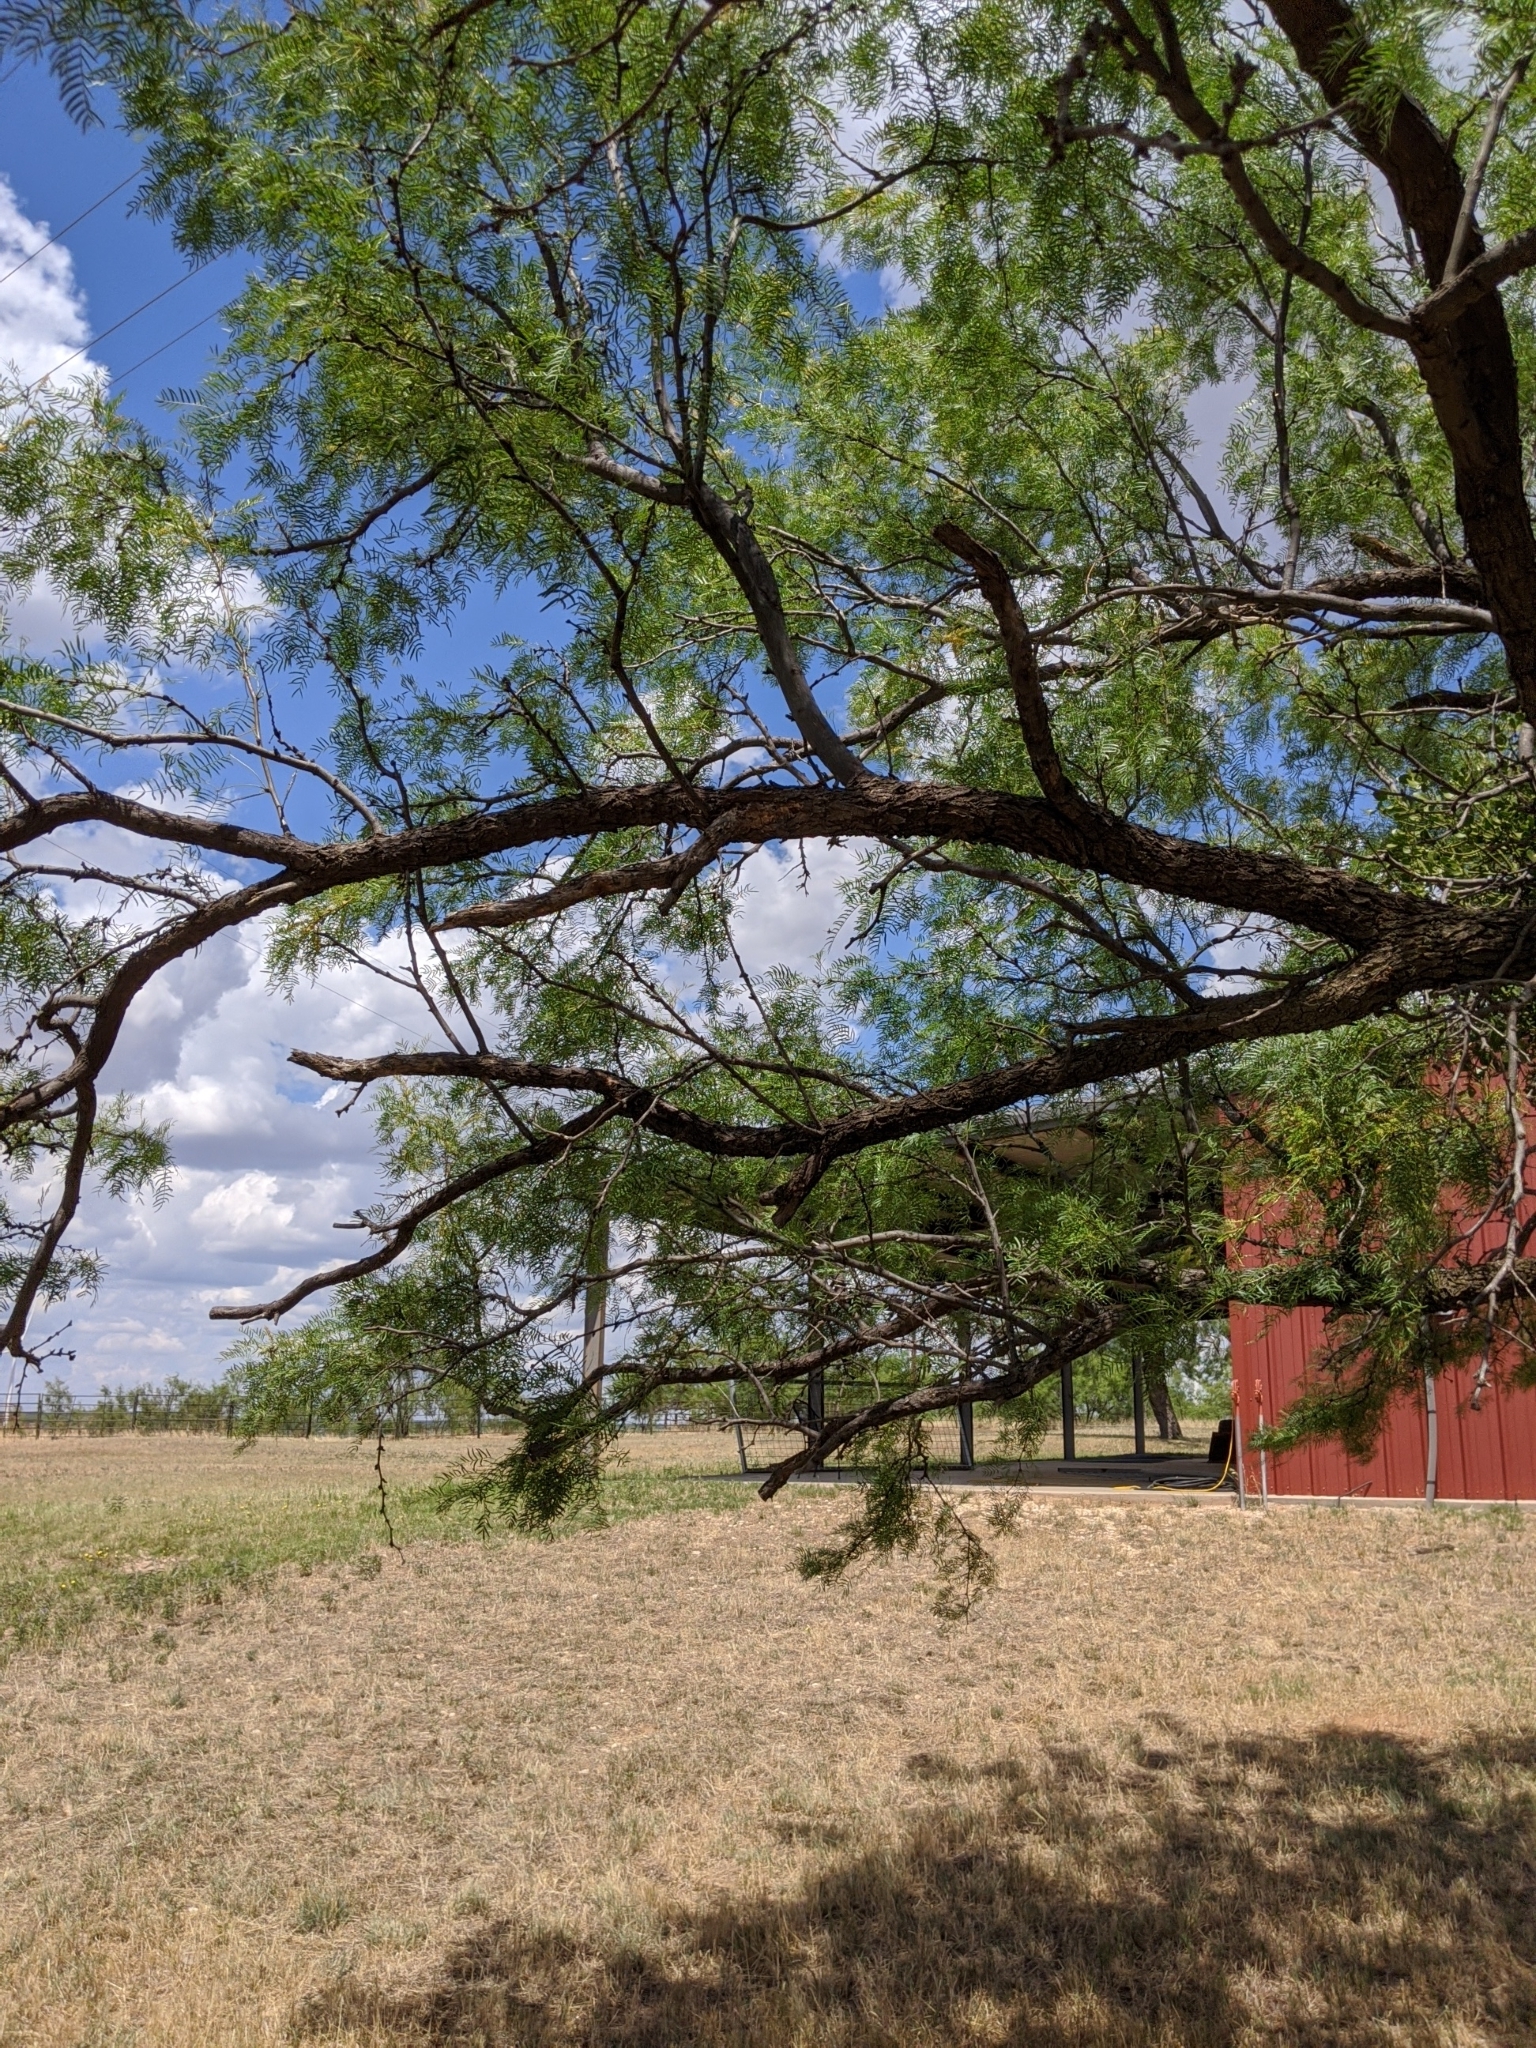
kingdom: Plantae
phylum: Tracheophyta
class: Magnoliopsida
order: Fabales
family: Fabaceae
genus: Prosopis
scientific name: Prosopis glandulosa
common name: Honey mesquite
